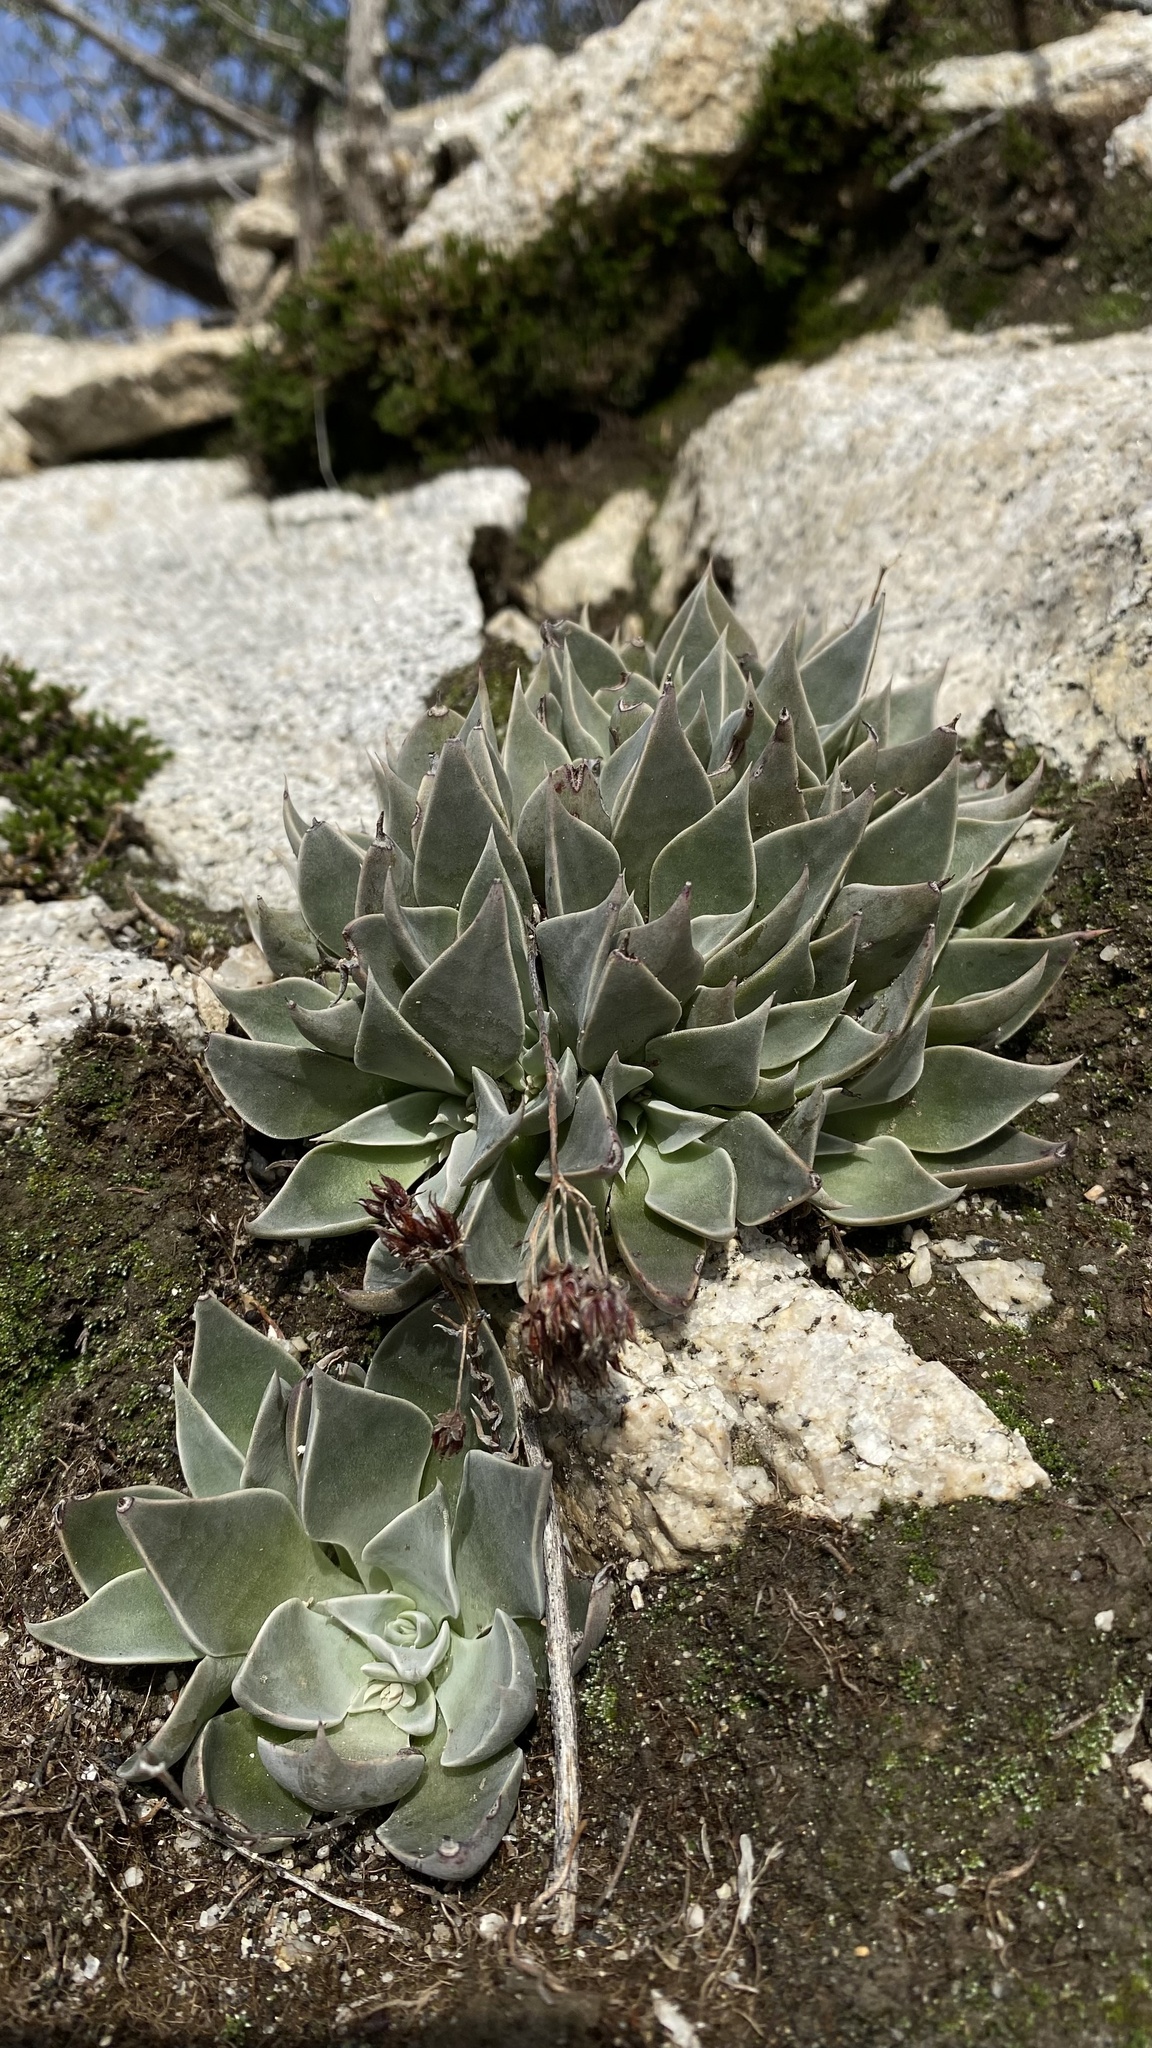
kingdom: Plantae
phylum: Tracheophyta
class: Magnoliopsida
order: Saxifragales
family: Crassulaceae
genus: Dudleya
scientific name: Dudleya cymosa
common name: Canyon dudleya
